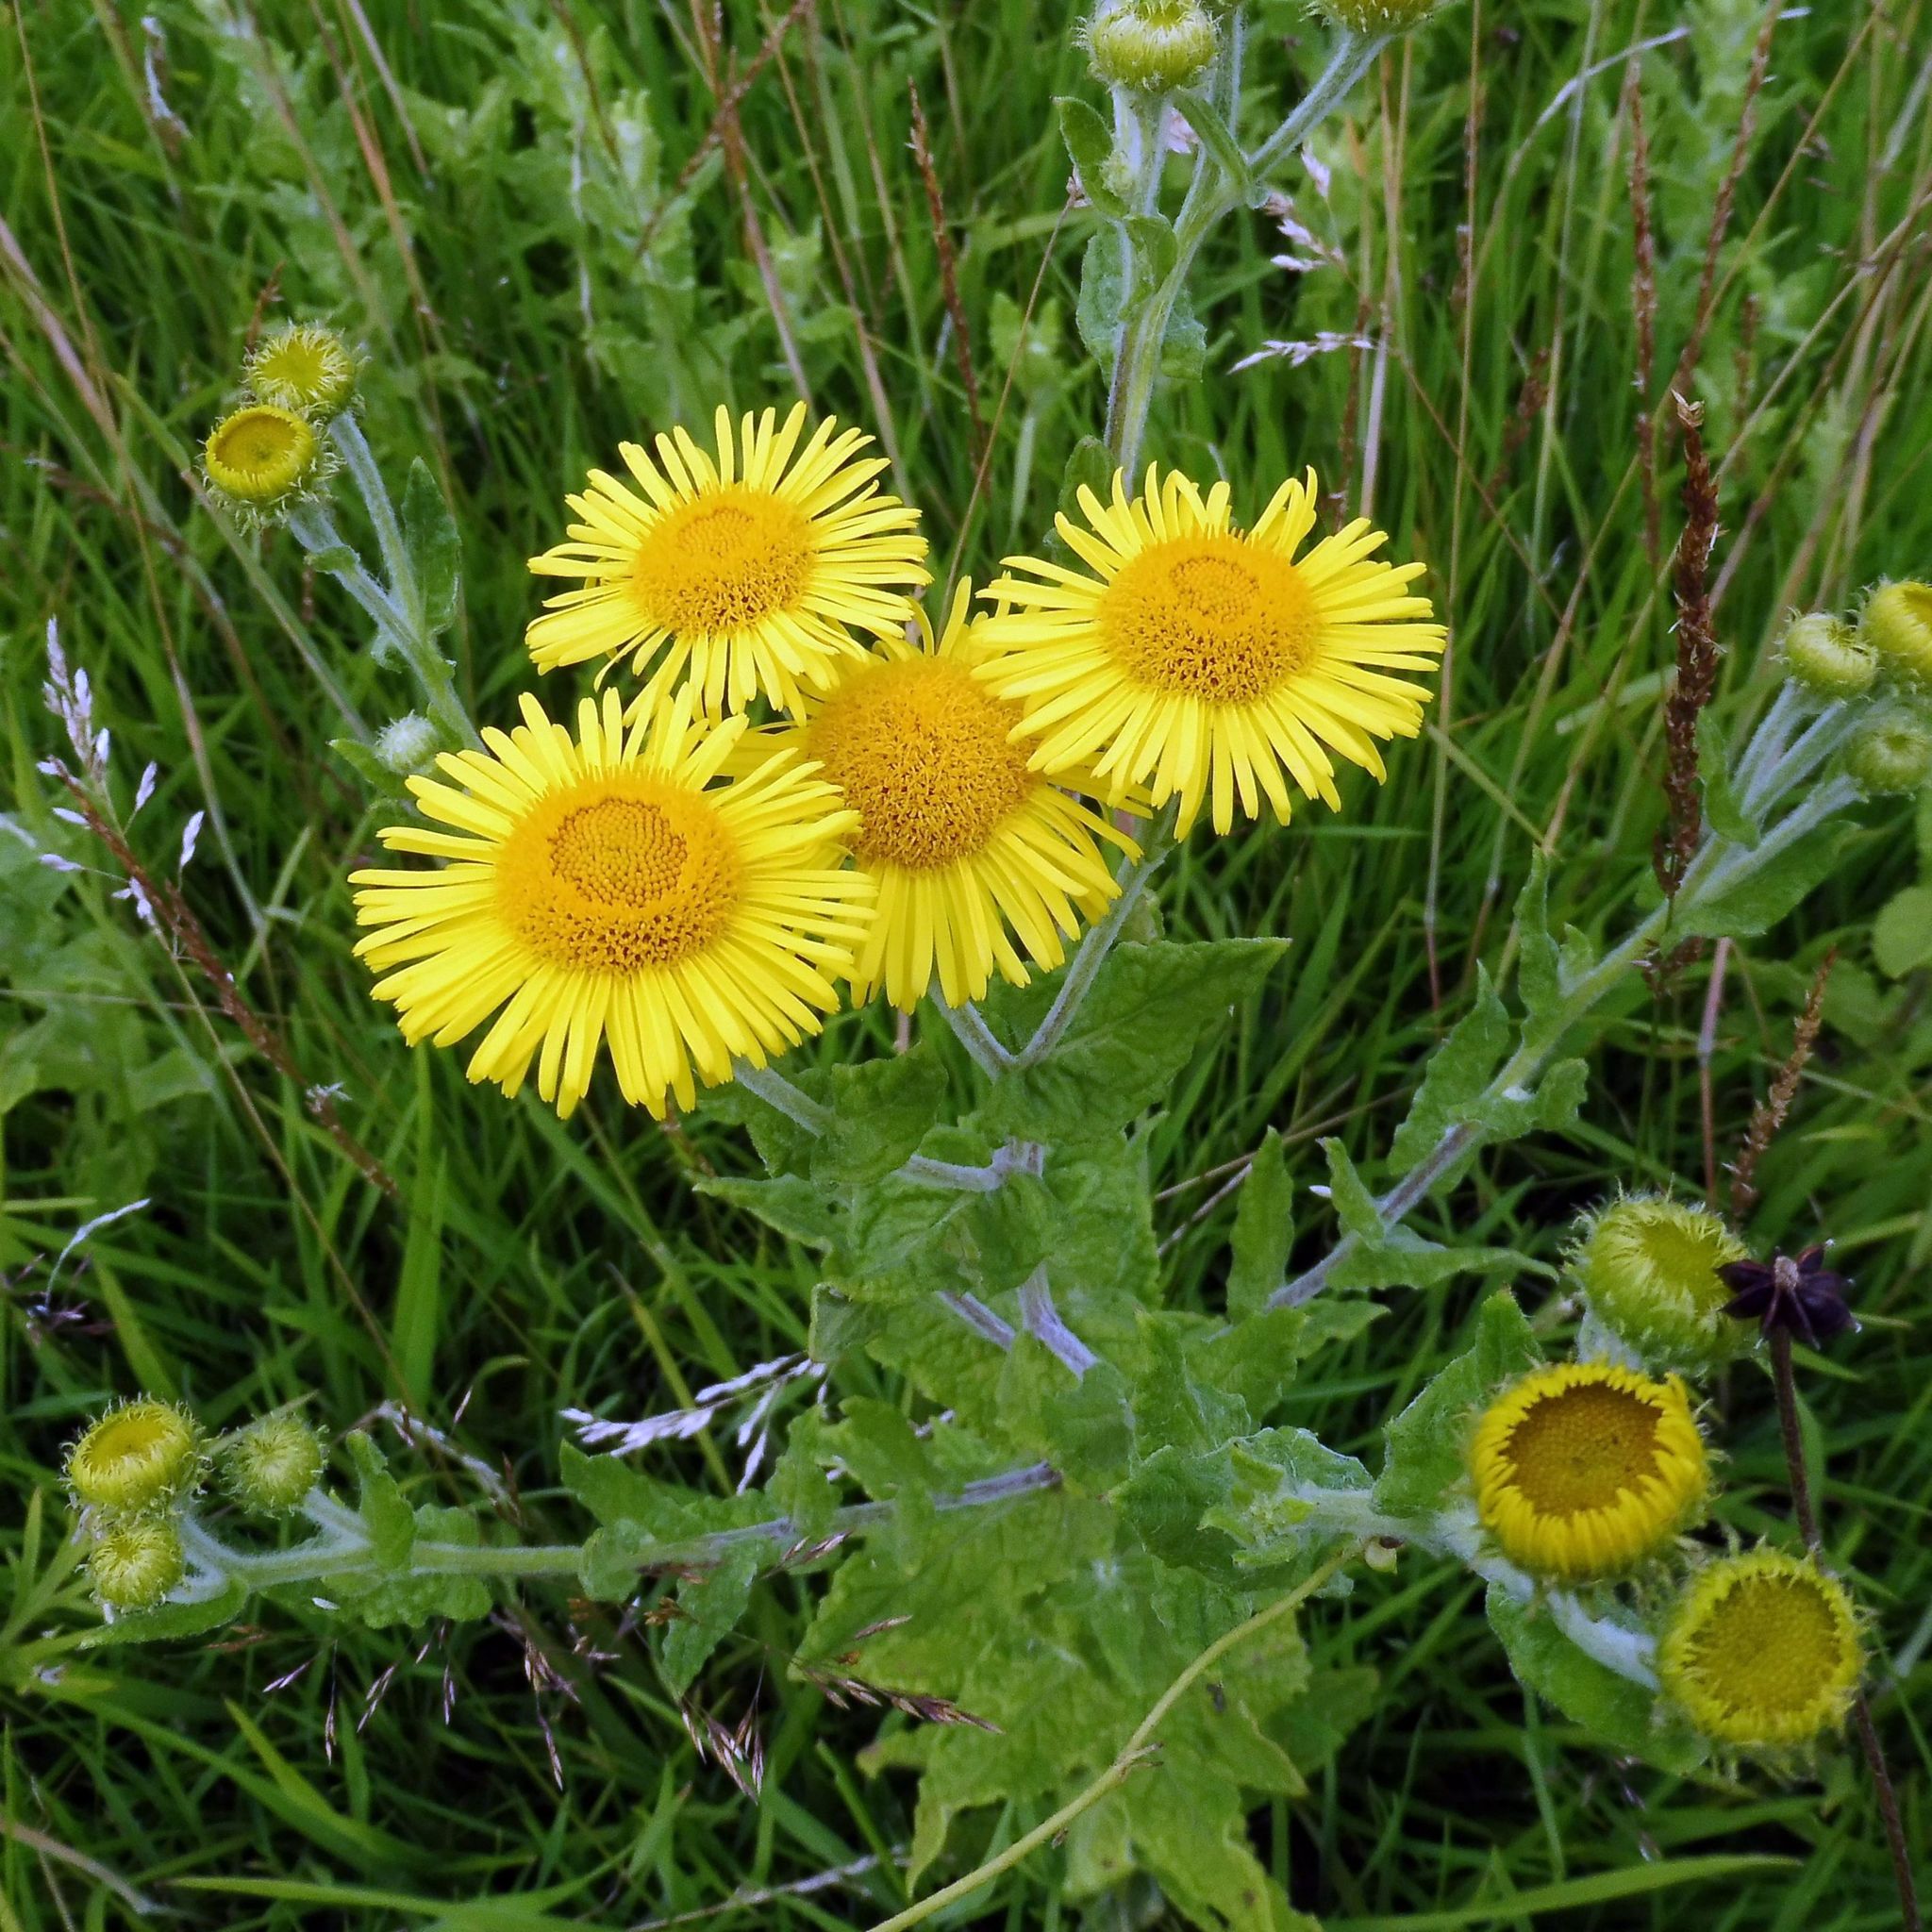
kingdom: Plantae
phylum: Tracheophyta
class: Magnoliopsida
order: Asterales
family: Asteraceae
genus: Pulicaria
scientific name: Pulicaria dysenterica
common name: Common fleabane
